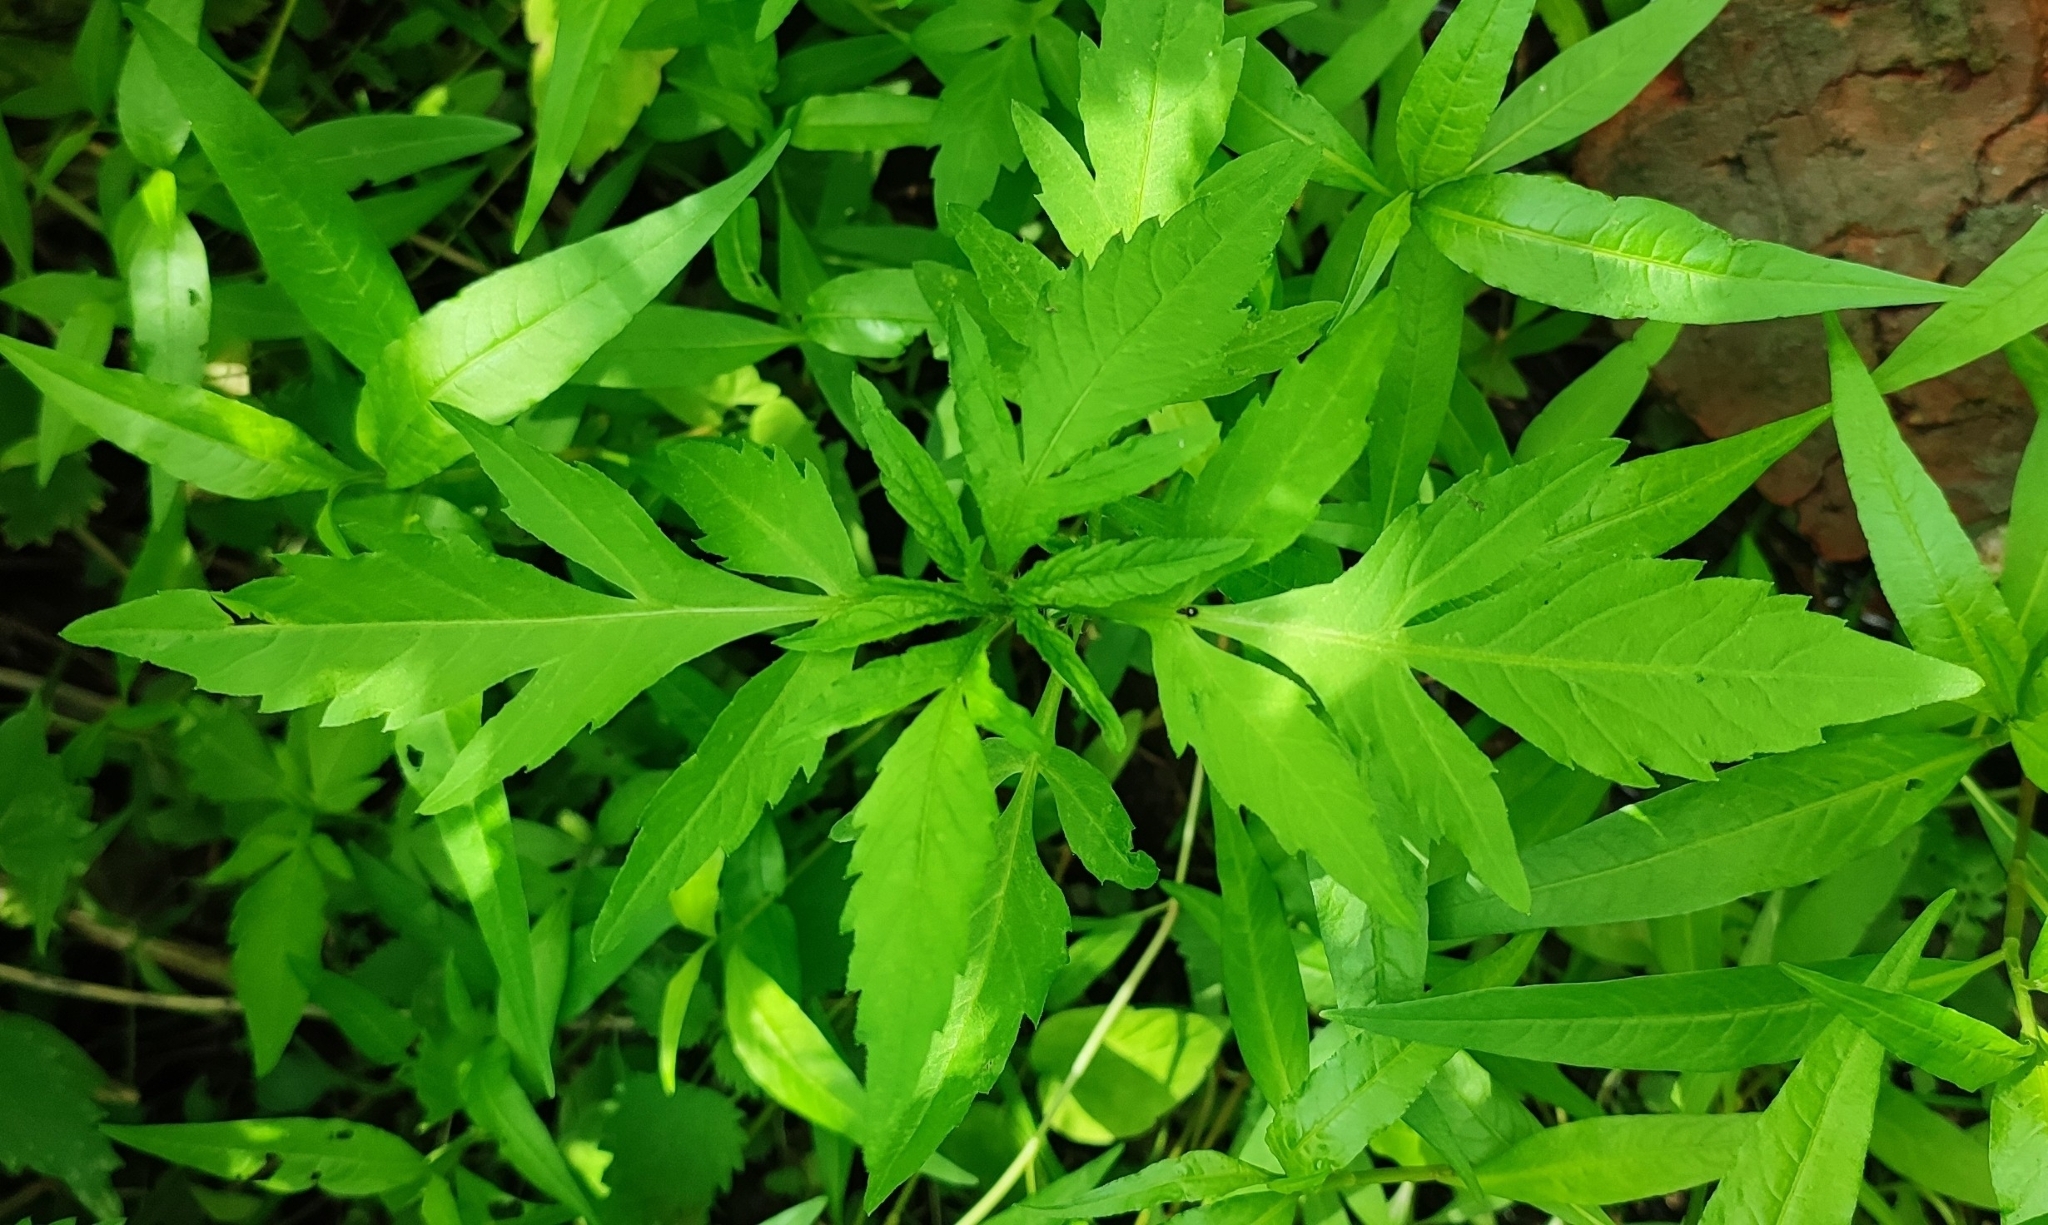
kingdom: Plantae
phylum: Tracheophyta
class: Magnoliopsida
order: Asterales
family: Asteraceae
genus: Bidens
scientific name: Bidens tripartita
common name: Trifid bur-marigold
